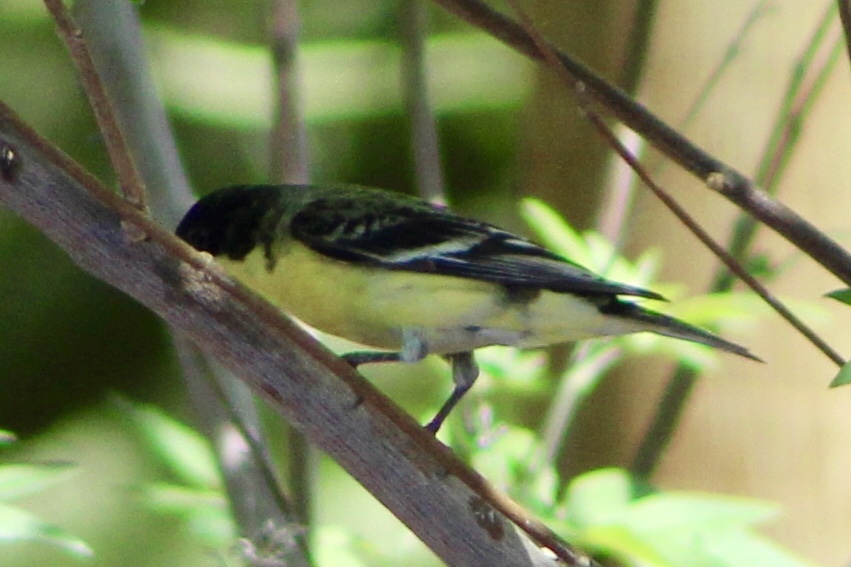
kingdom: Animalia
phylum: Chordata
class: Aves
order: Passeriformes
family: Fringillidae
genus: Spinus
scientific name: Spinus psaltria
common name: Lesser goldfinch
